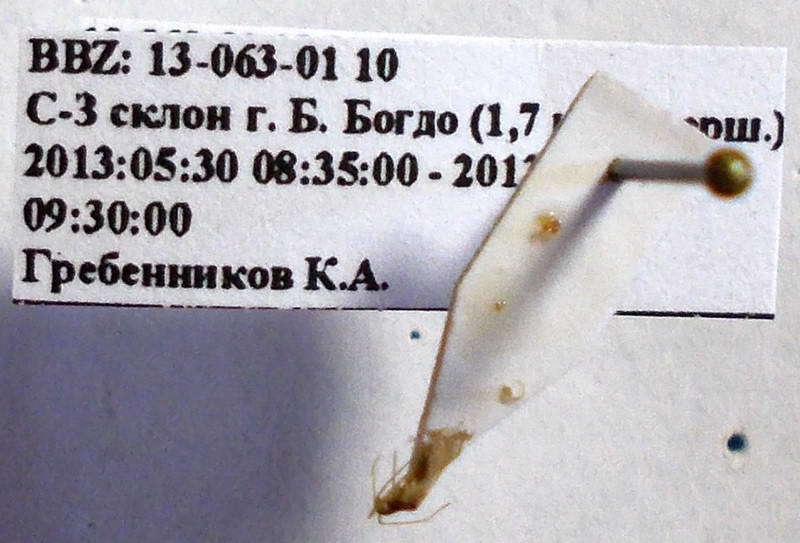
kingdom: Animalia
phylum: Arthropoda
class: Insecta
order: Hemiptera
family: Miridae
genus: Hallodapus
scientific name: Hallodapus concolor
